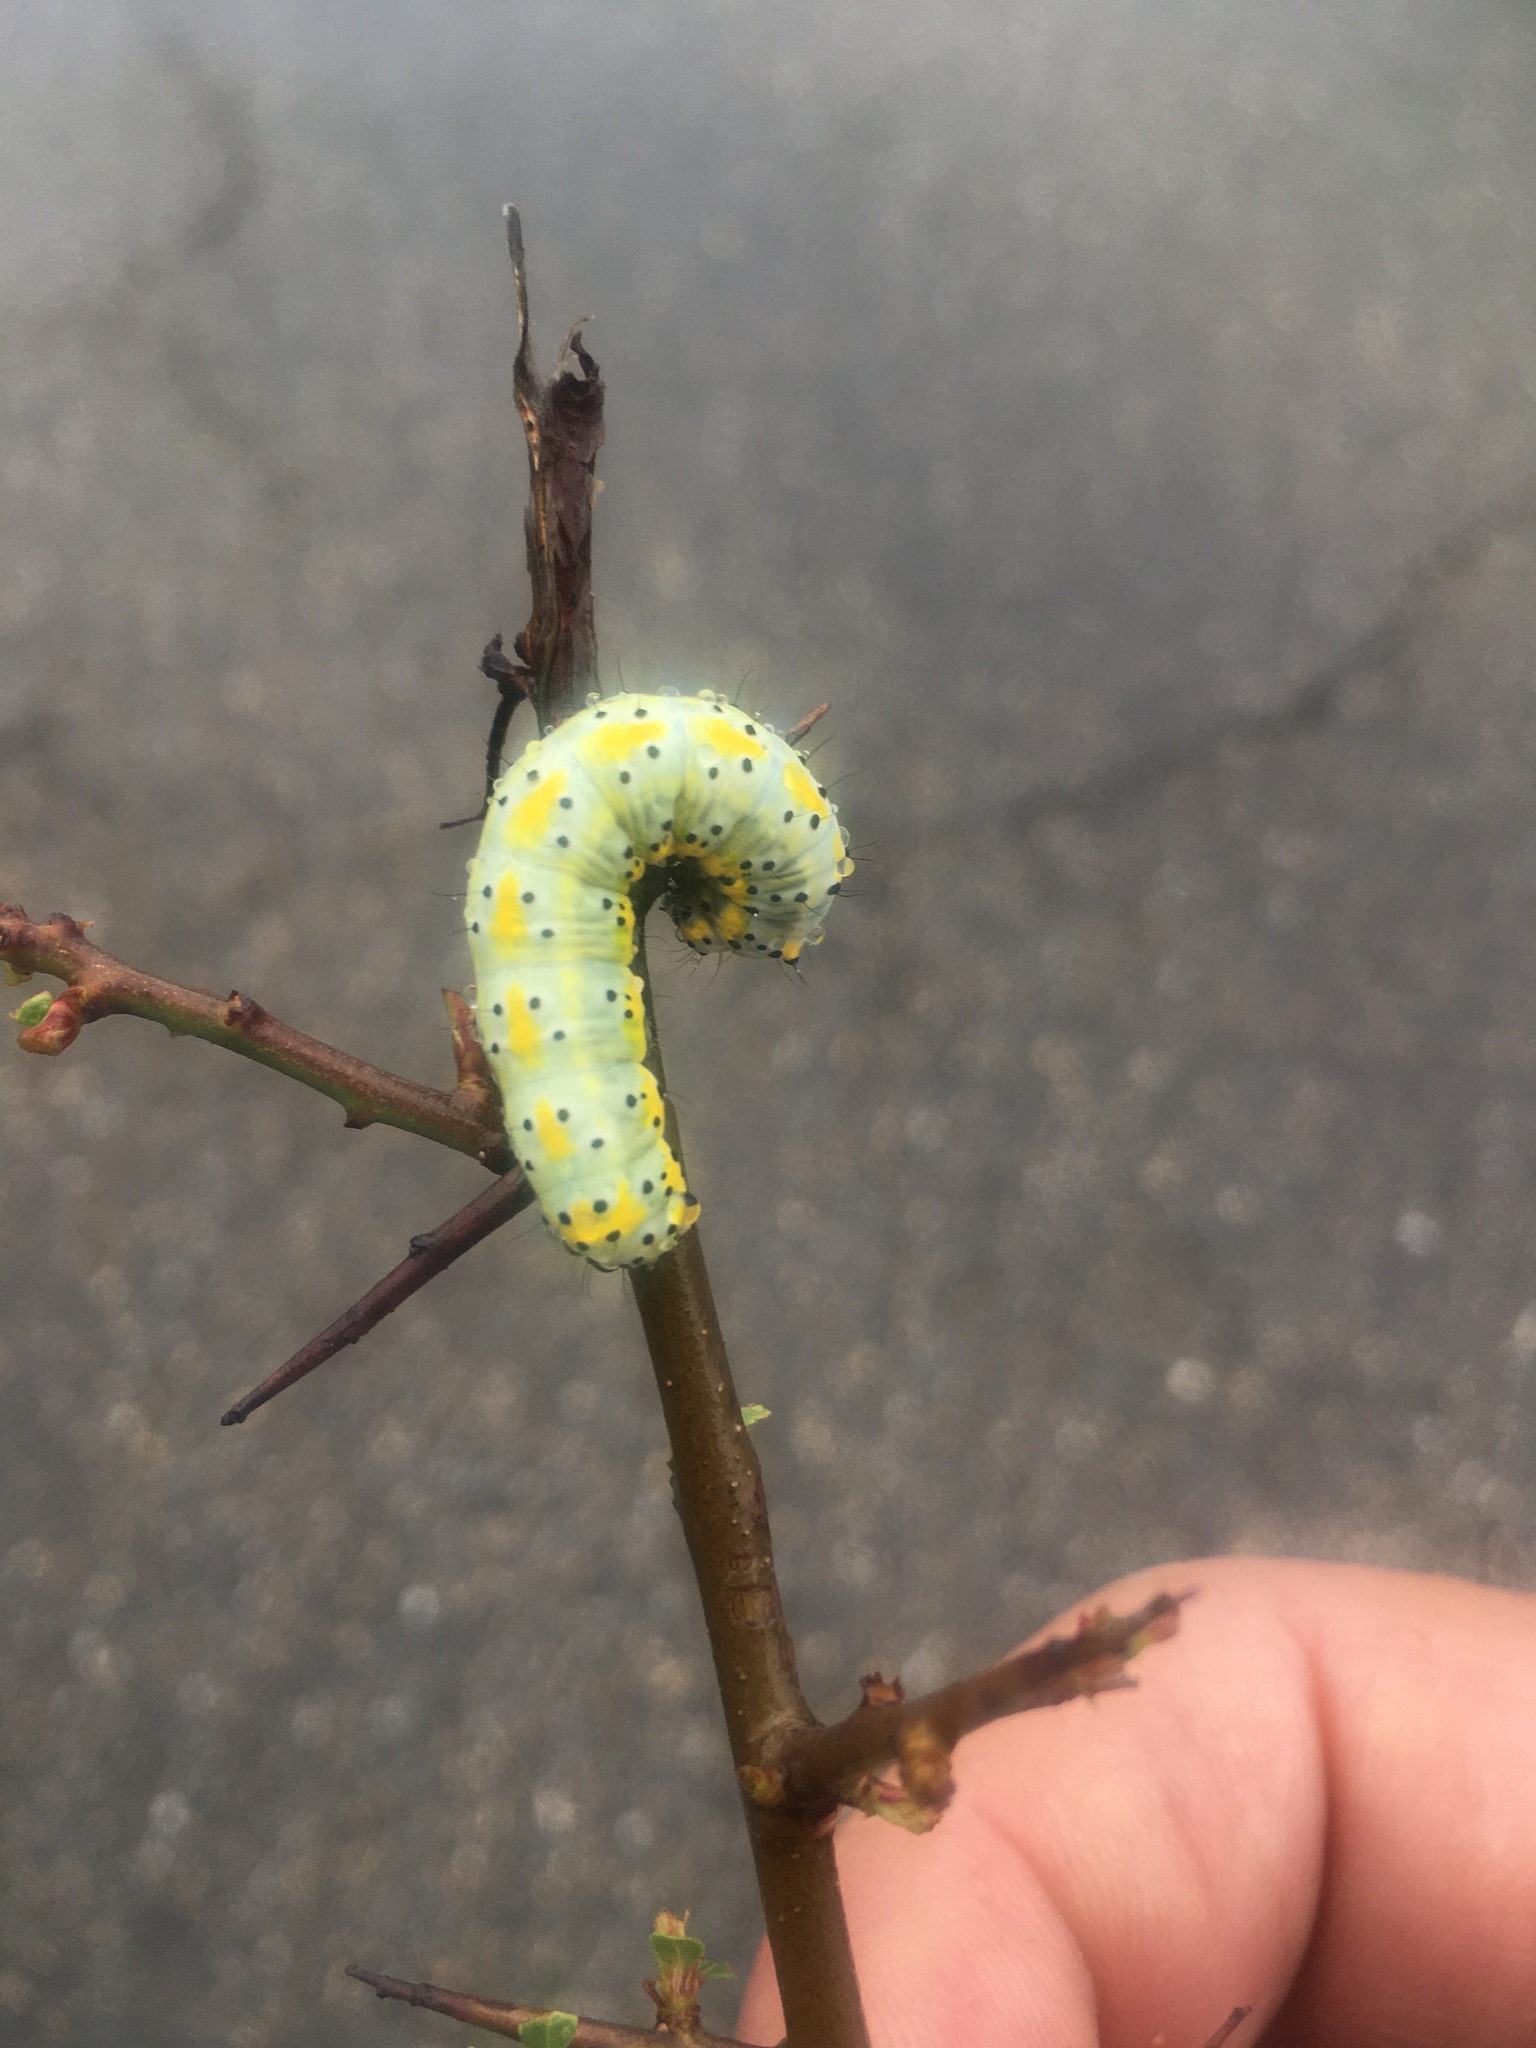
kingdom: Animalia
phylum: Arthropoda
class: Insecta
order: Lepidoptera
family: Noctuidae
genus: Diloba
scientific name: Diloba caeruleocephala
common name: Figure of eight
